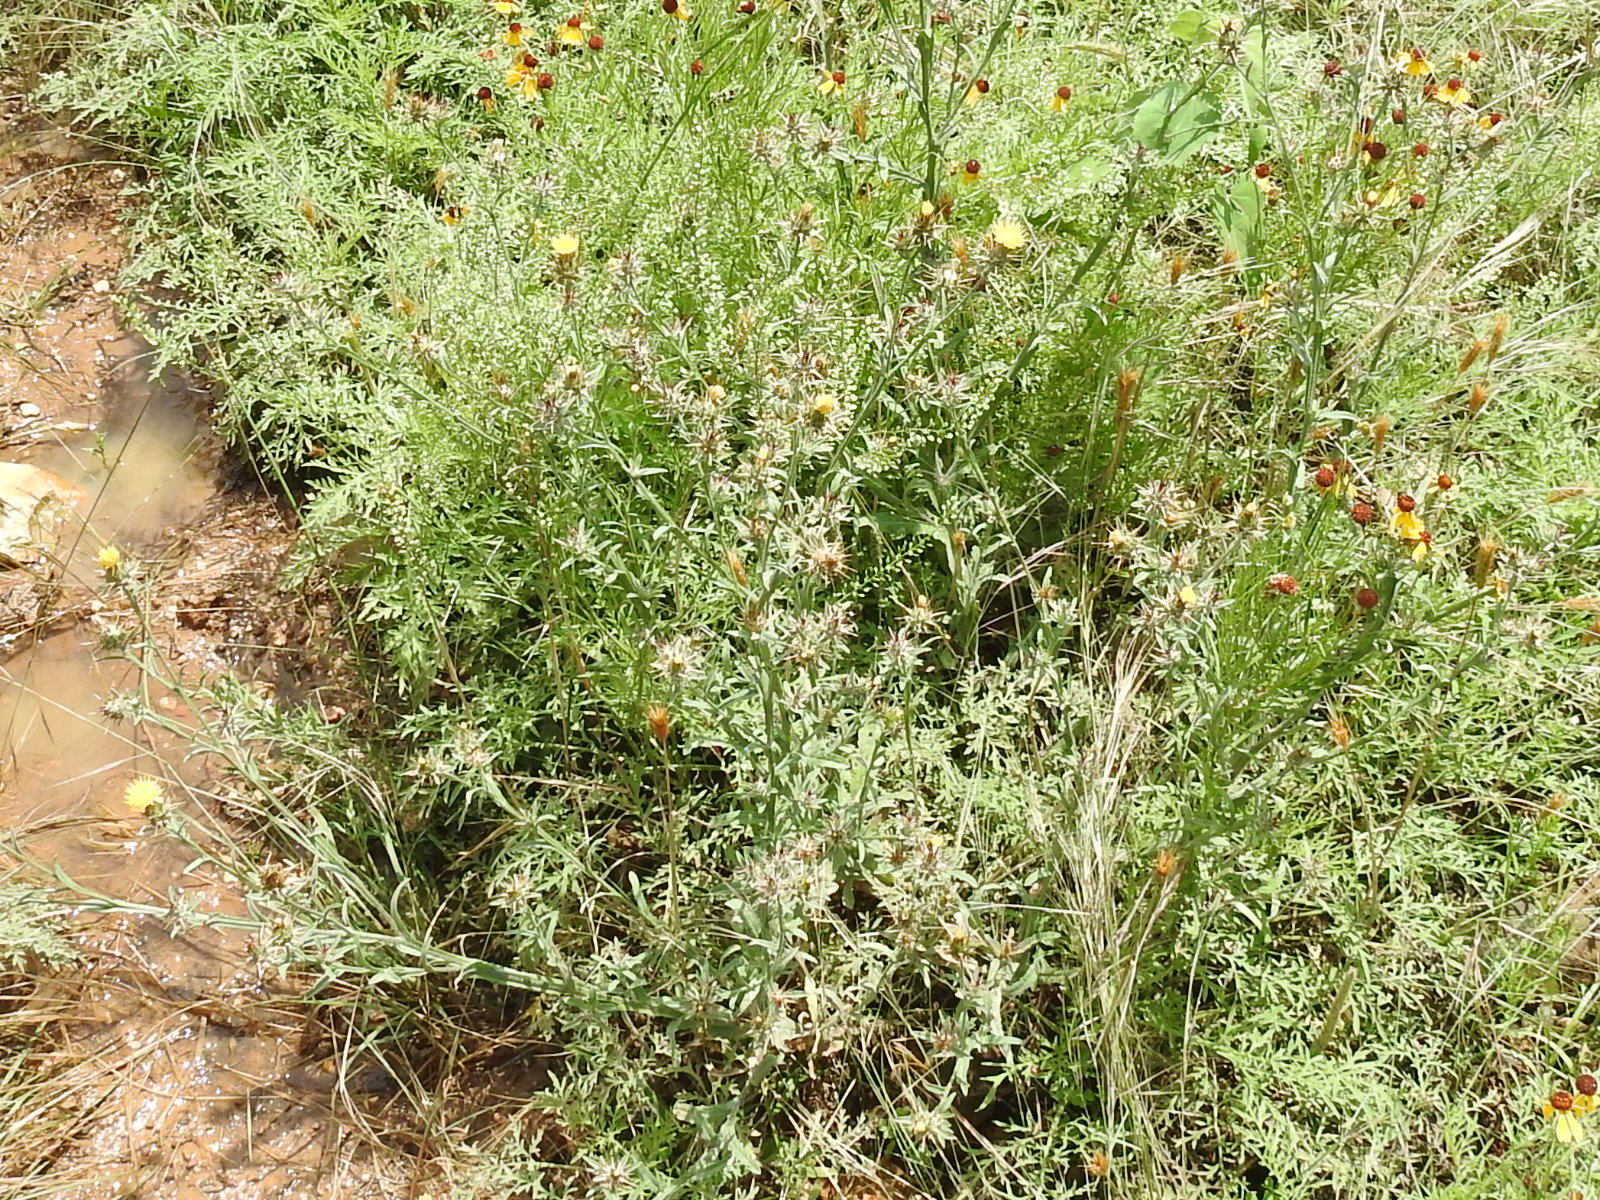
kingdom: Plantae
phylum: Tracheophyta
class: Magnoliopsida
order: Asterales
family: Asteraceae
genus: Centaurea
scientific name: Centaurea melitensis
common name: Maltese star-thistle
